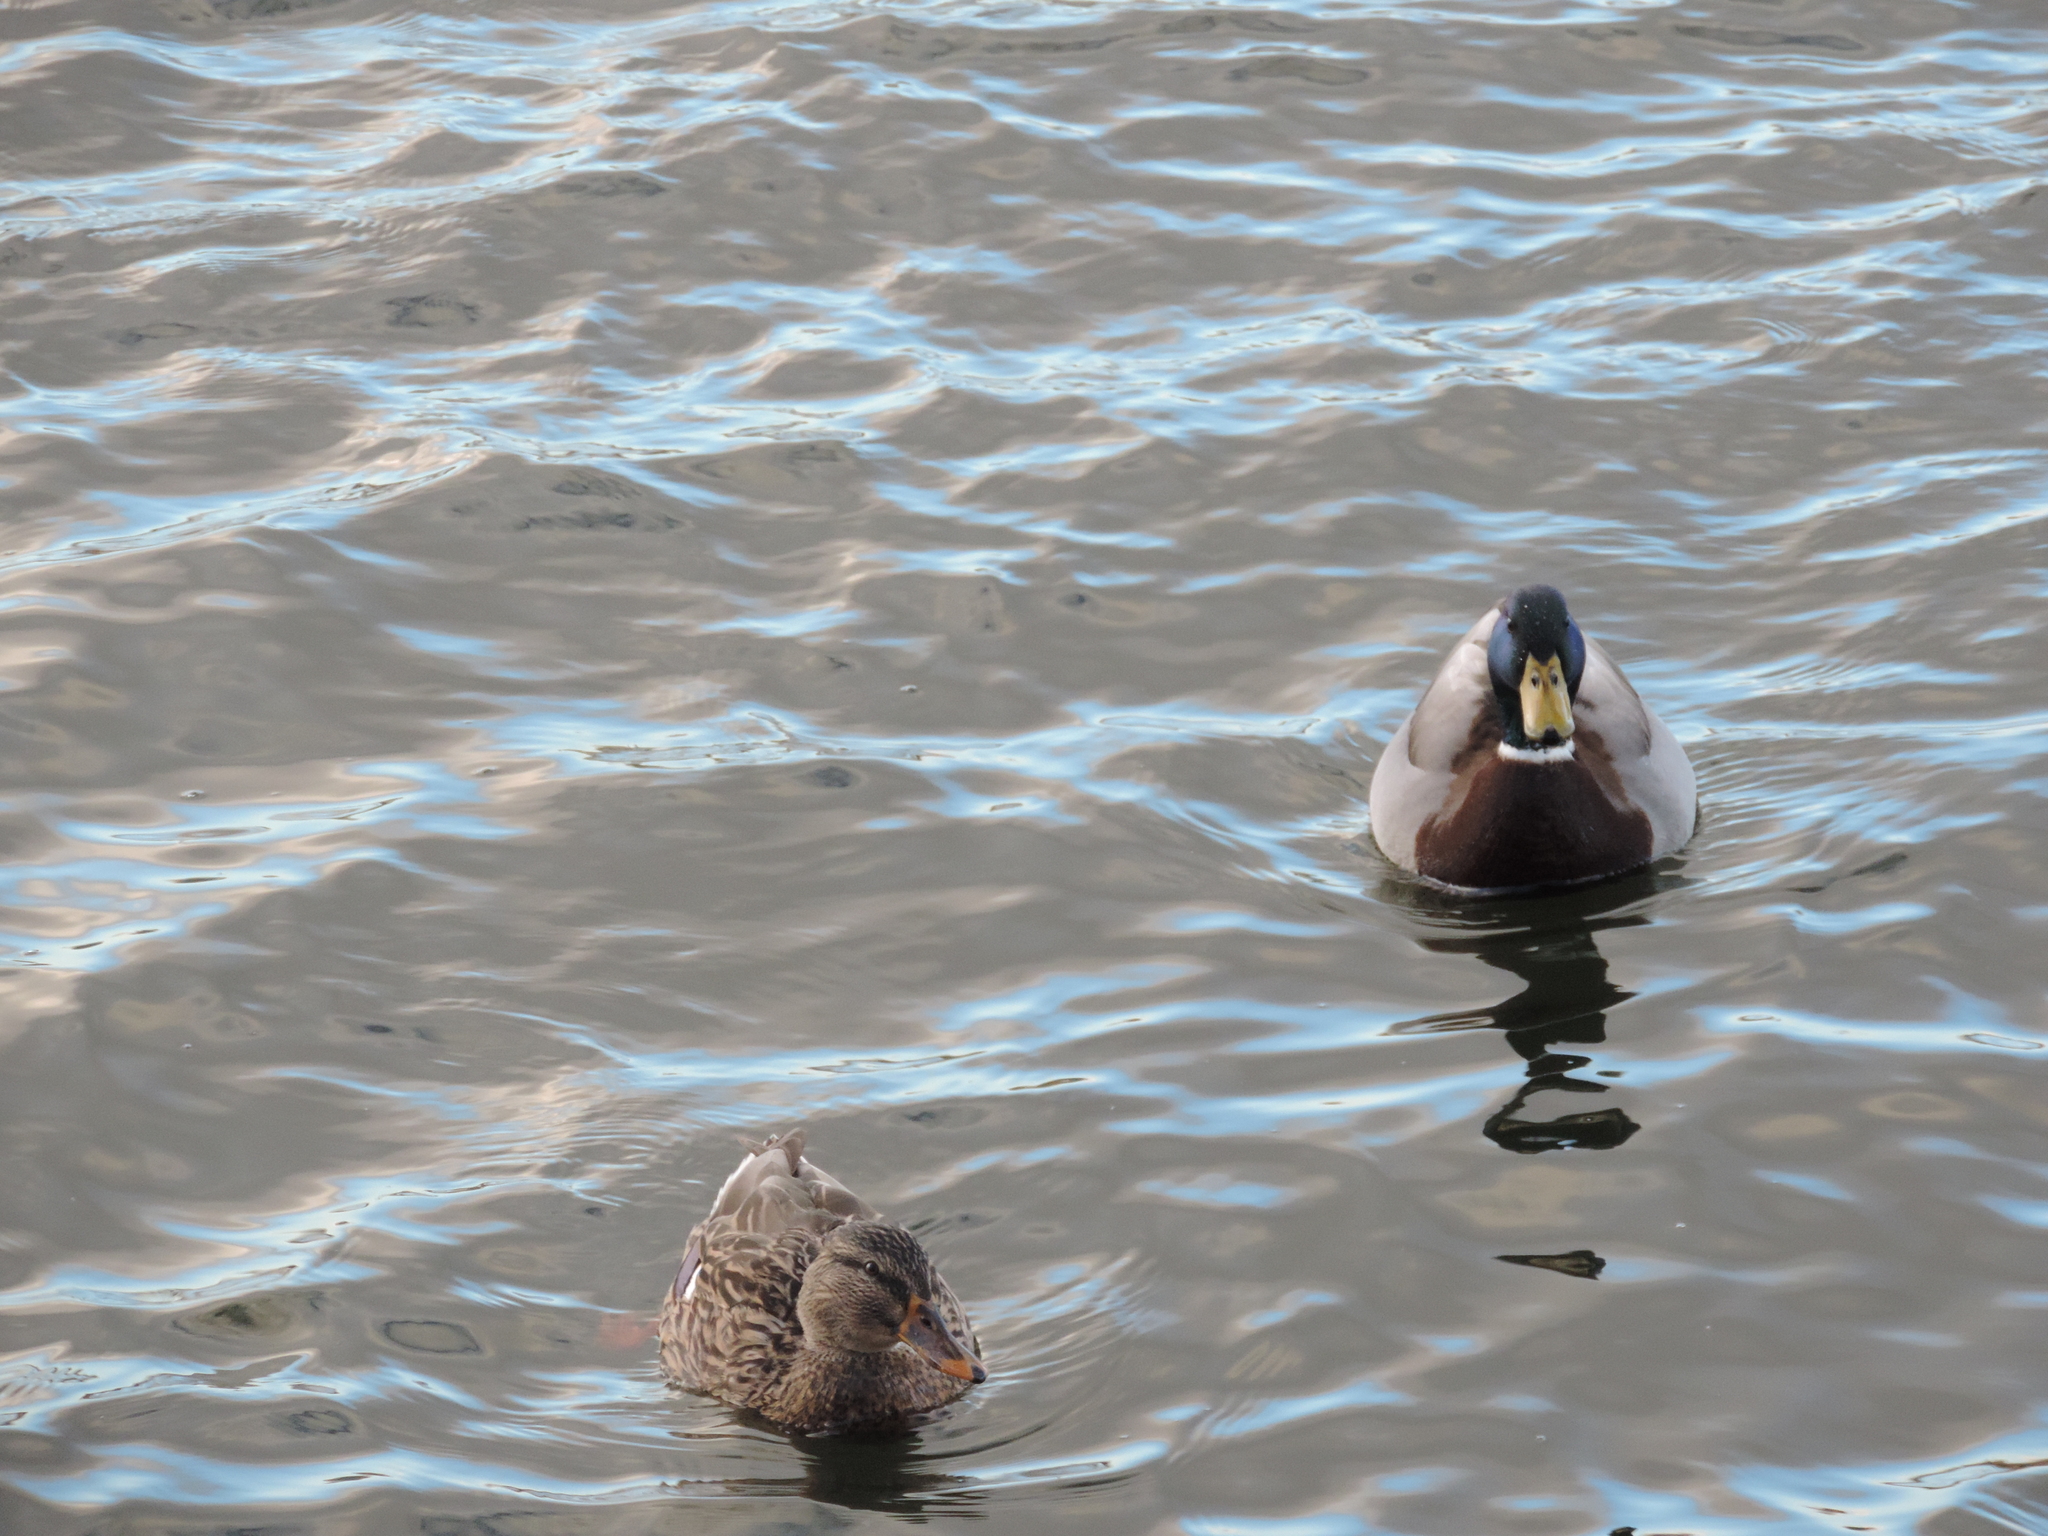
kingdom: Animalia
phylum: Chordata
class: Aves
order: Anseriformes
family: Anatidae
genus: Anas
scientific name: Anas platyrhynchos
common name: Mallard
